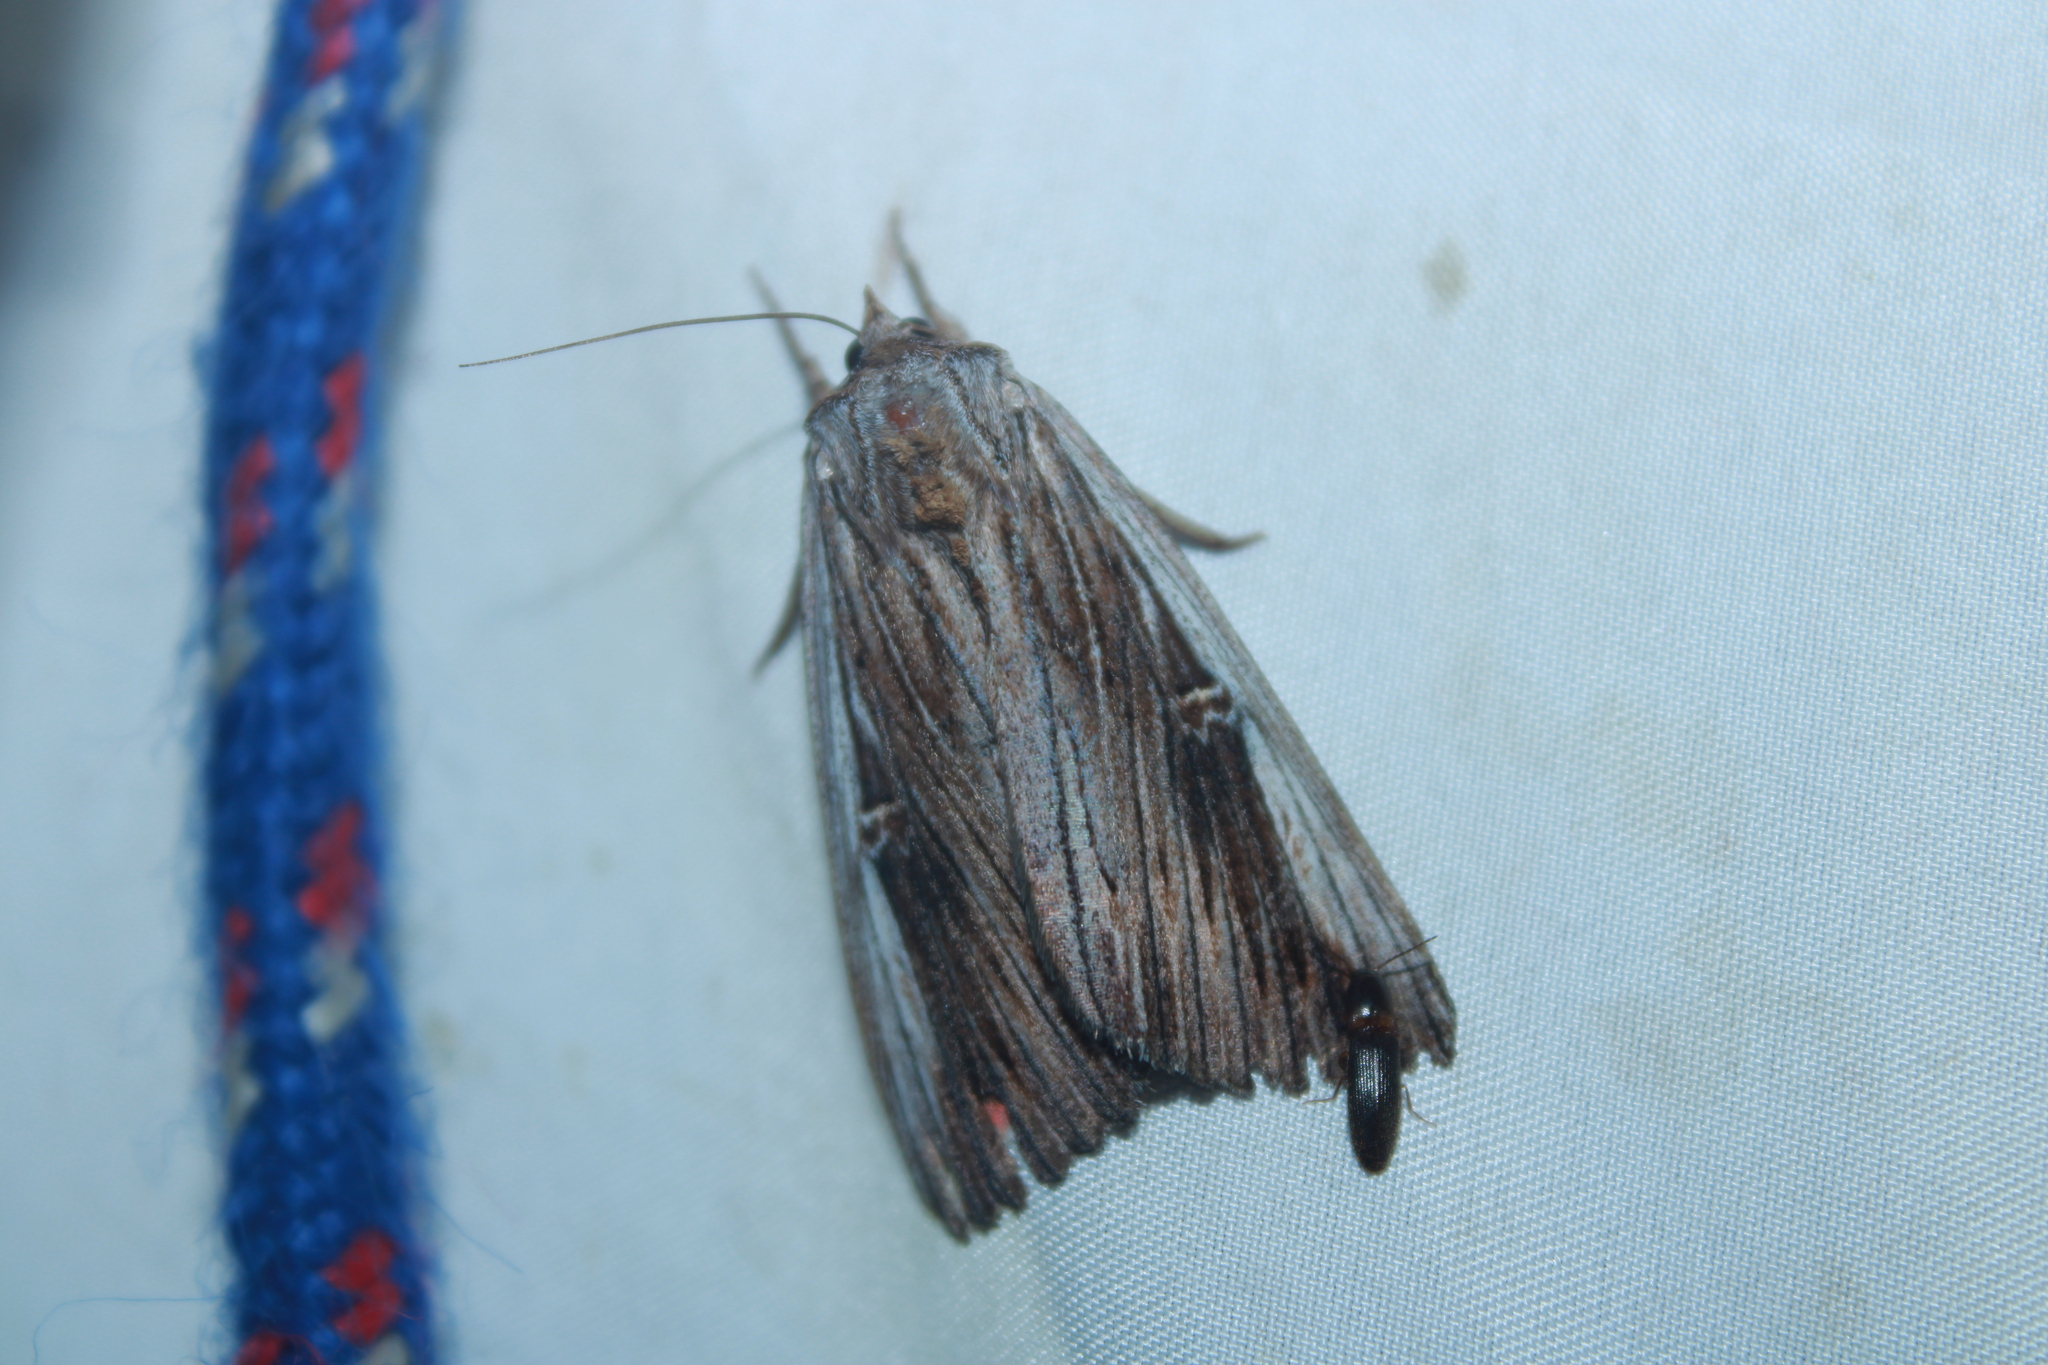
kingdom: Animalia
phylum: Arthropoda
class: Insecta
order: Lepidoptera
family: Erebidae
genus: Catocala
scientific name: Catocala herodias
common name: Pine barrens underwing
